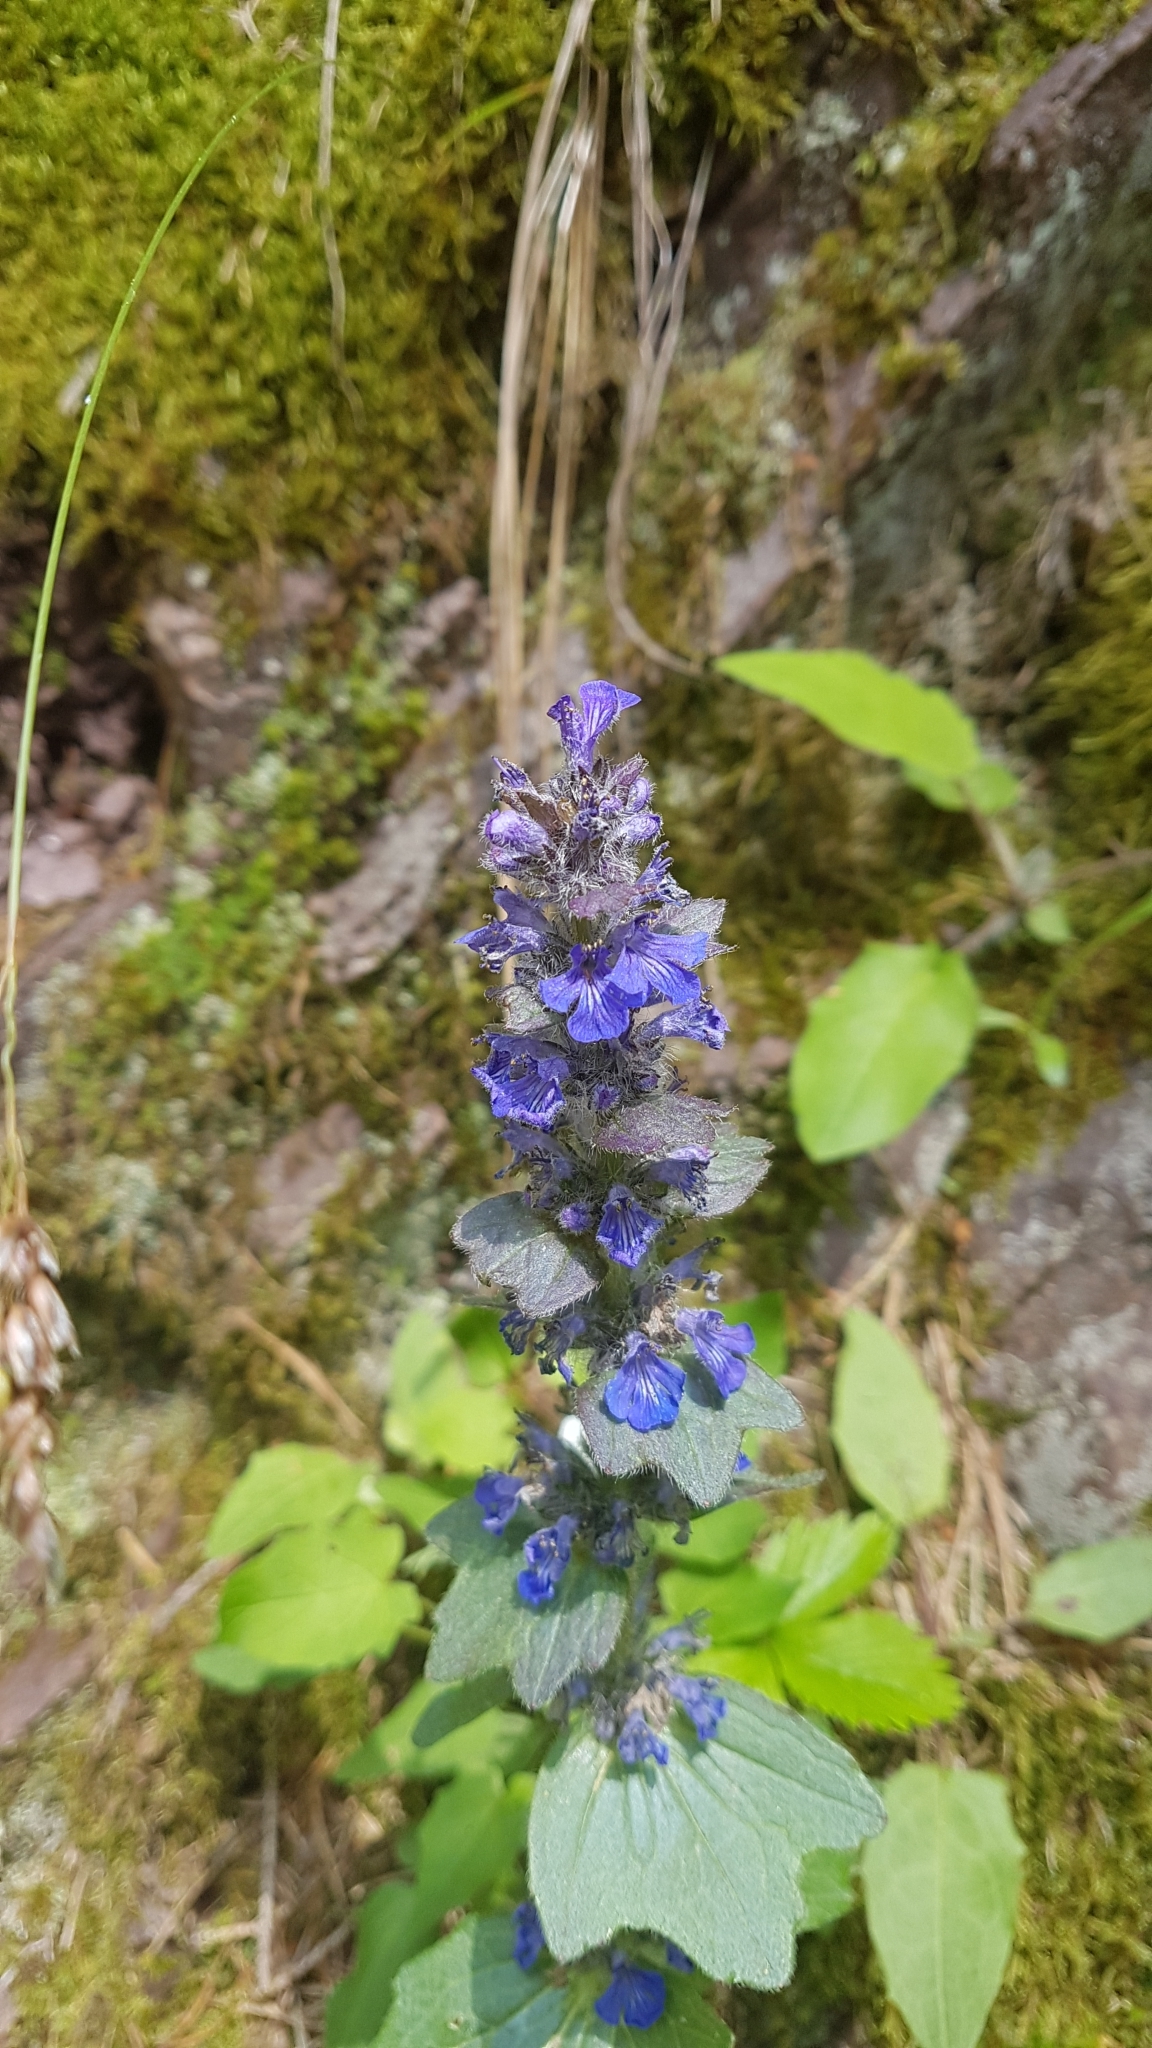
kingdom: Plantae
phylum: Tracheophyta
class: Magnoliopsida
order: Lamiales
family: Lamiaceae
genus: Ajuga
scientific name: Ajuga reptans
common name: Bugle
